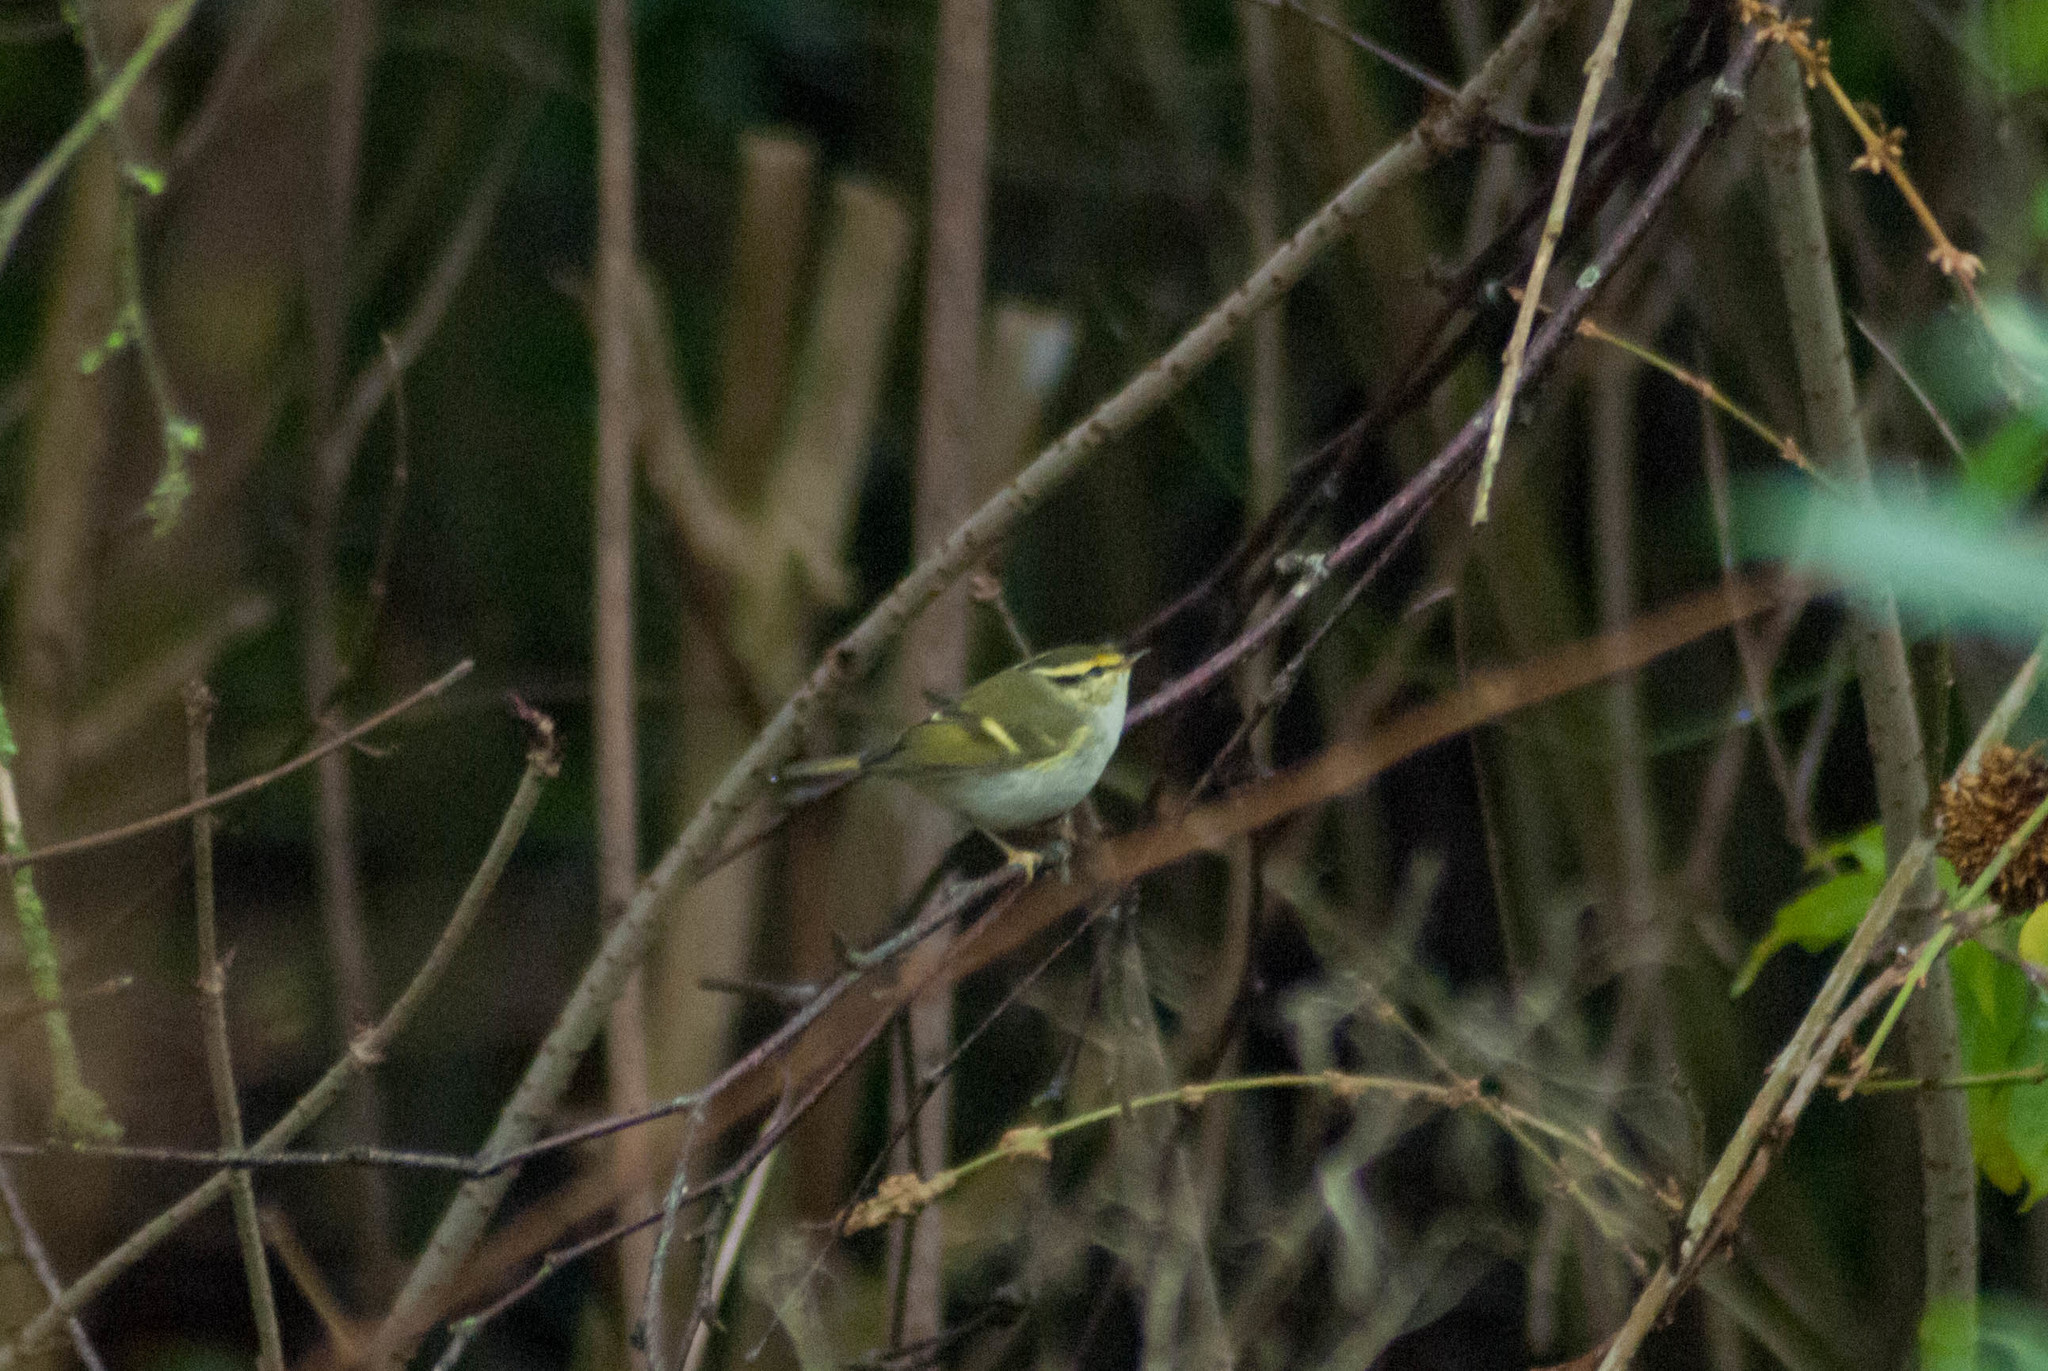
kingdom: Animalia
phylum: Chordata
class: Aves
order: Passeriformes
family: Phylloscopidae
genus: Phylloscopus
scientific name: Phylloscopus proregulus
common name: Pallas's leaf warbler
